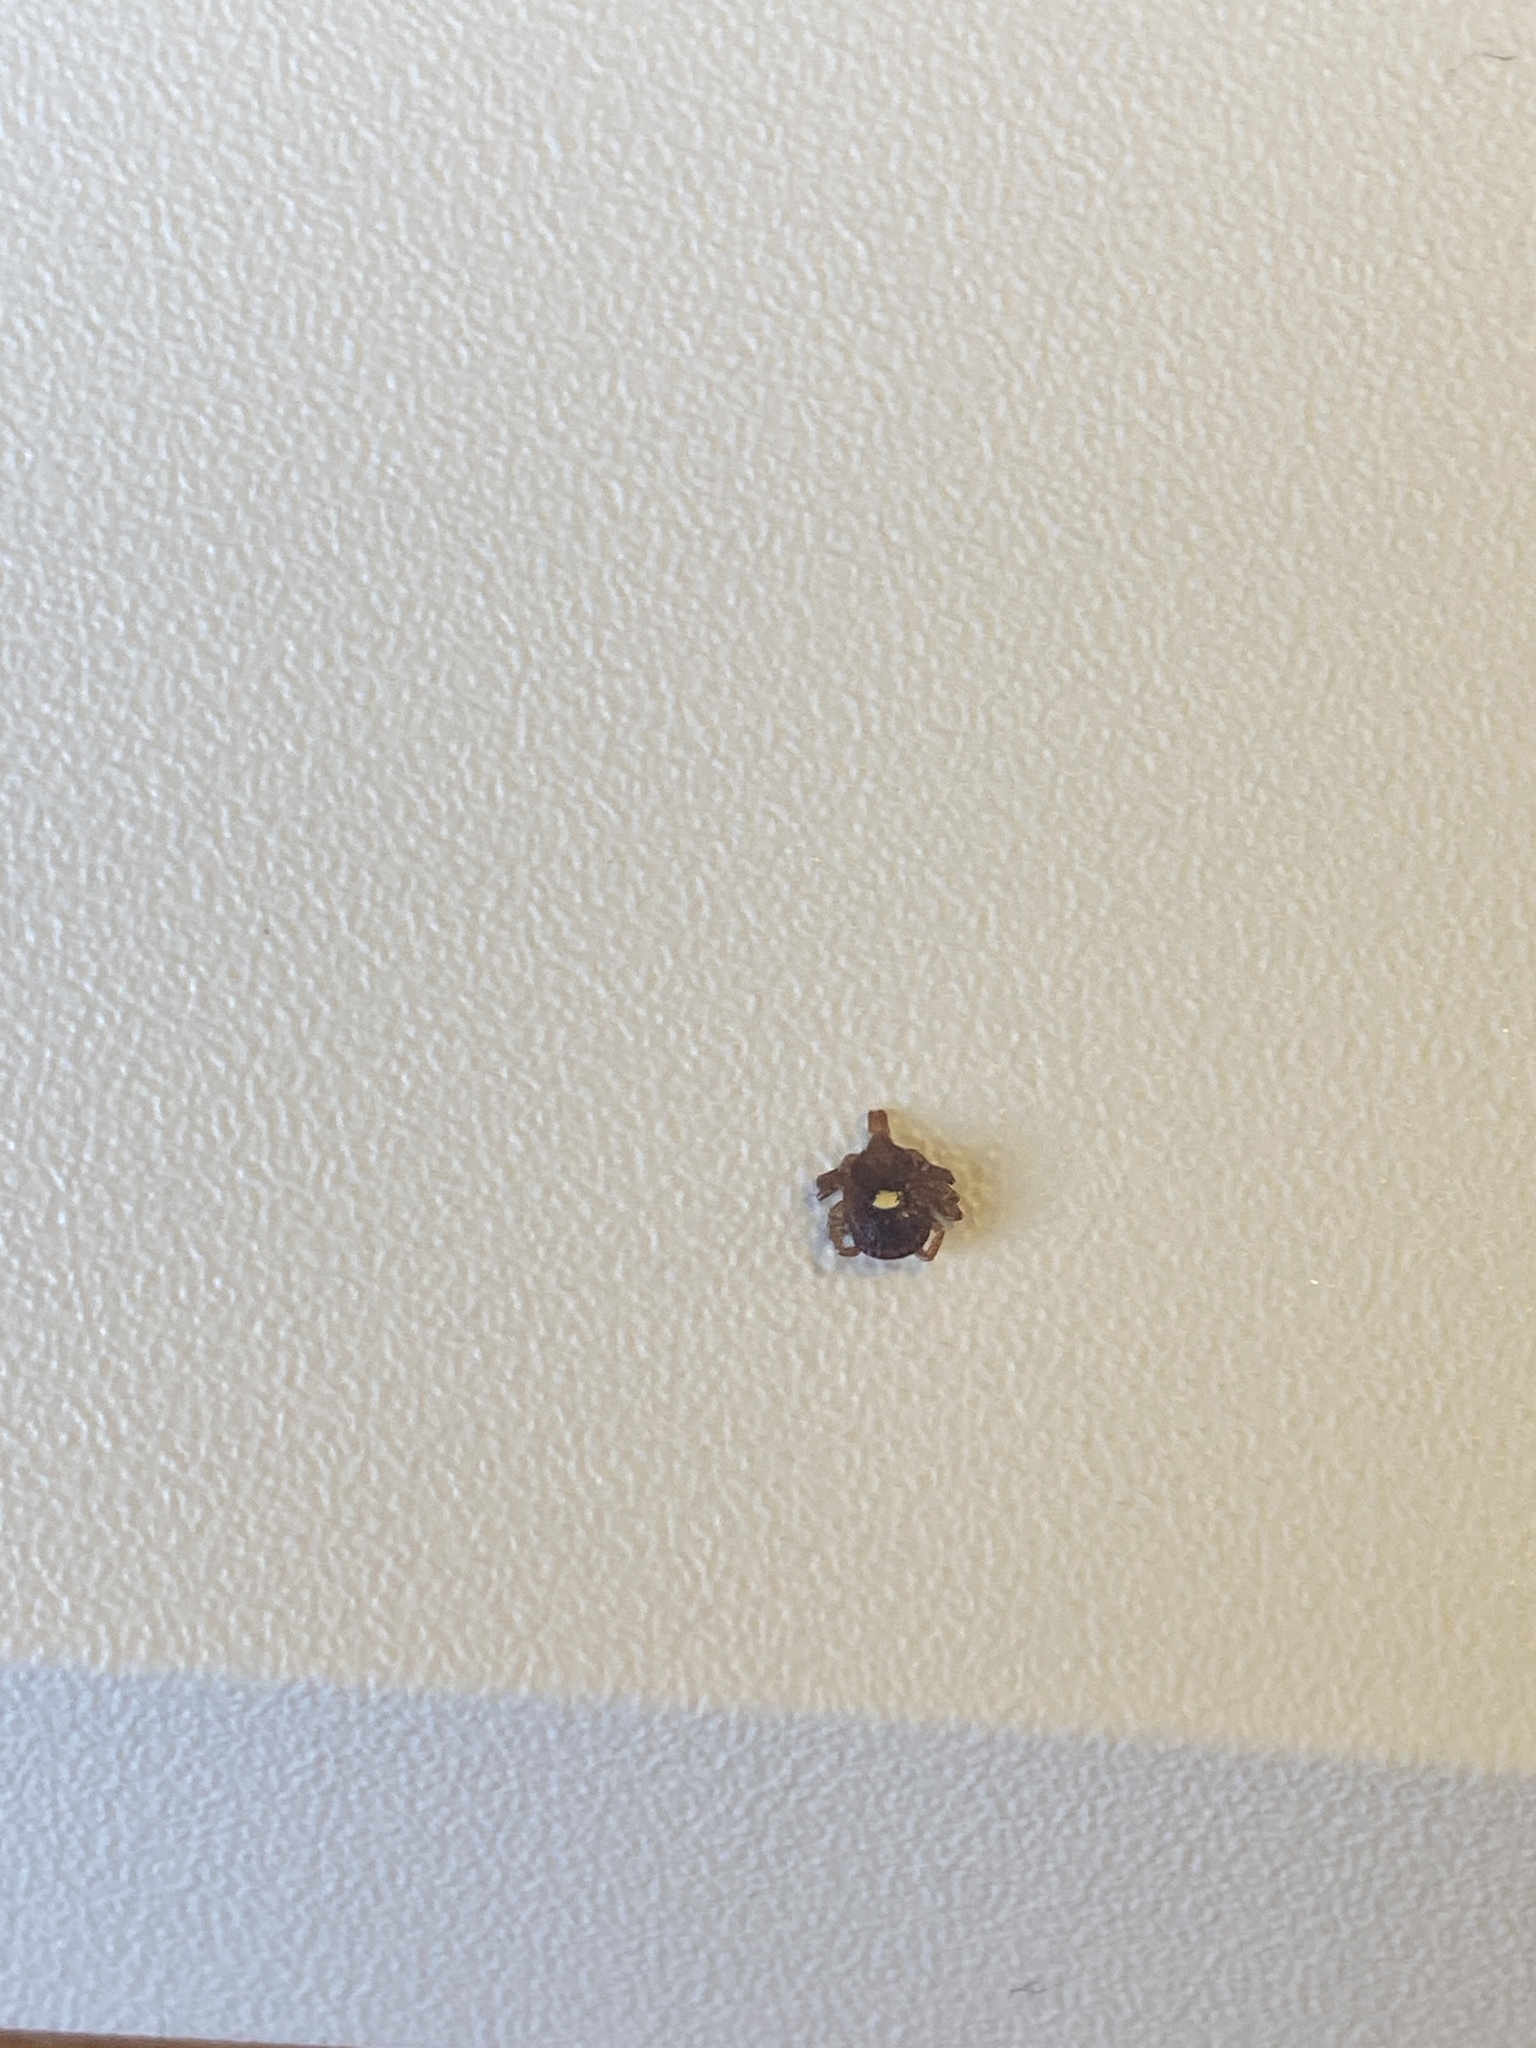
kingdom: Animalia
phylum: Arthropoda
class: Arachnida
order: Ixodida
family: Ixodidae
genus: Amblyomma
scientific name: Amblyomma americanum
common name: Lone star tick
